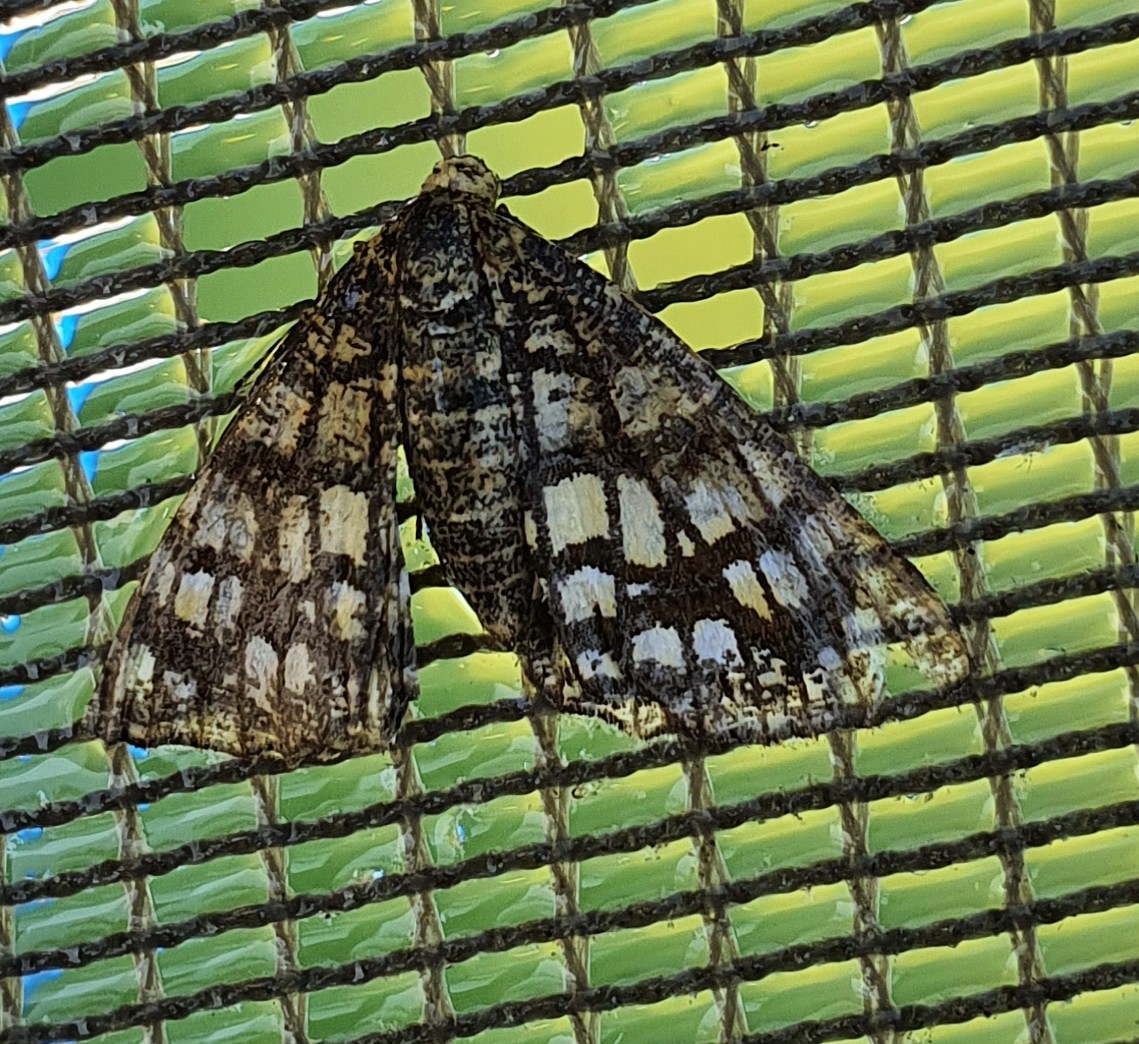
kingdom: Animalia
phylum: Arthropoda
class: Insecta
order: Lepidoptera
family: Geometridae
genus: Chiasmia
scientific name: Chiasmia clathrata
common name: Latticed heath
